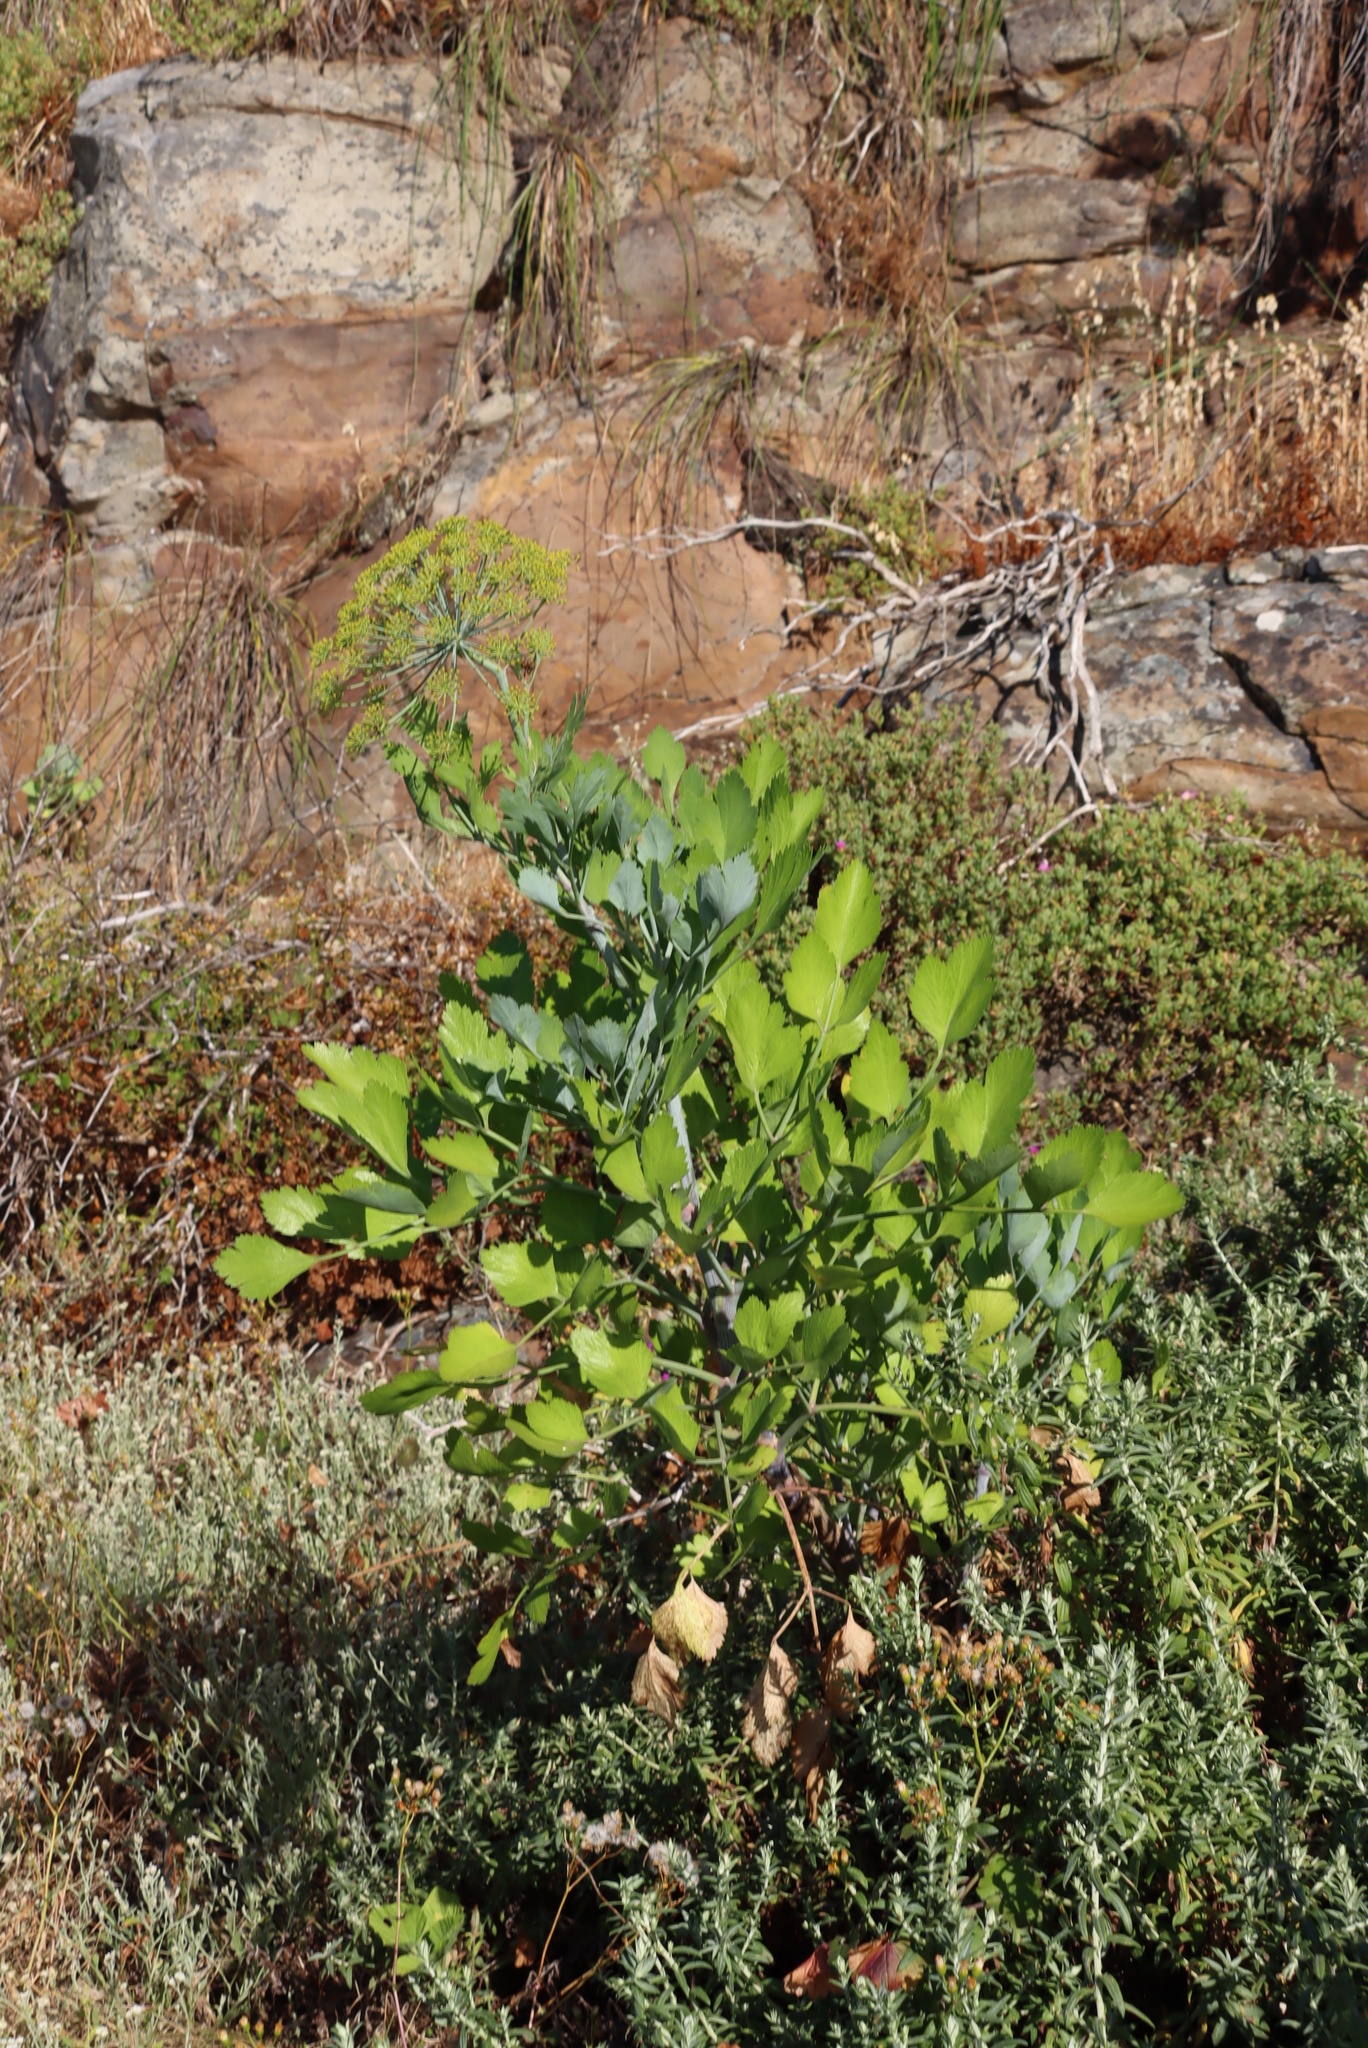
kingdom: Plantae
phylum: Tracheophyta
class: Magnoliopsida
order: Apiales
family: Apiaceae
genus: Notobubon
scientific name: Notobubon galbanum
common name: Blisterbush
